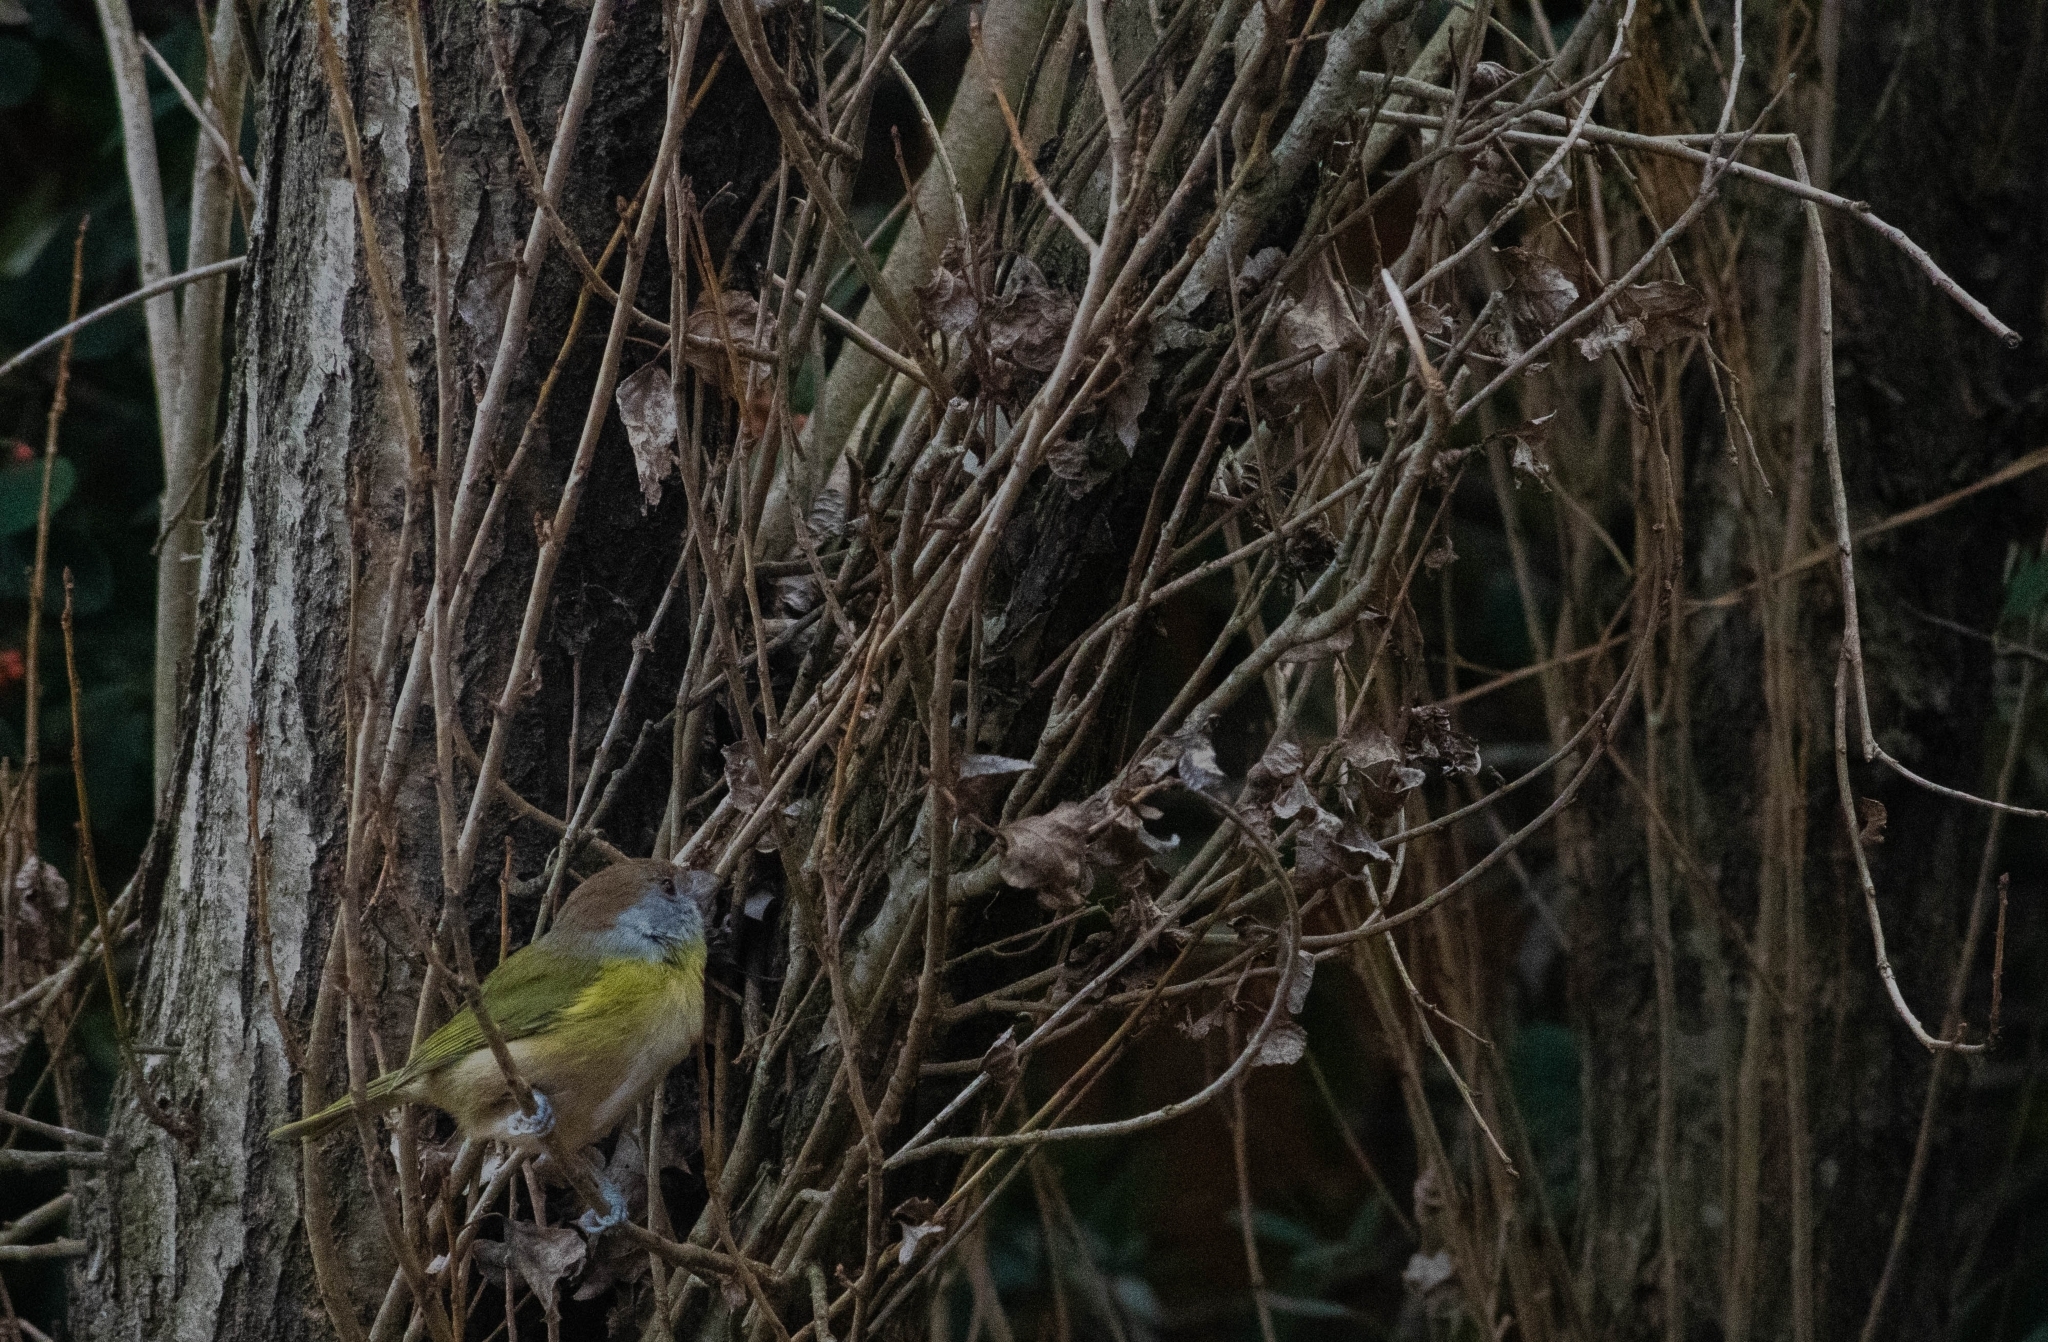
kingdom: Animalia
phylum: Chordata
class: Aves
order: Passeriformes
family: Vireonidae
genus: Cyclarhis
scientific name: Cyclarhis gujanensis
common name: Rufous-browed peppershrike
